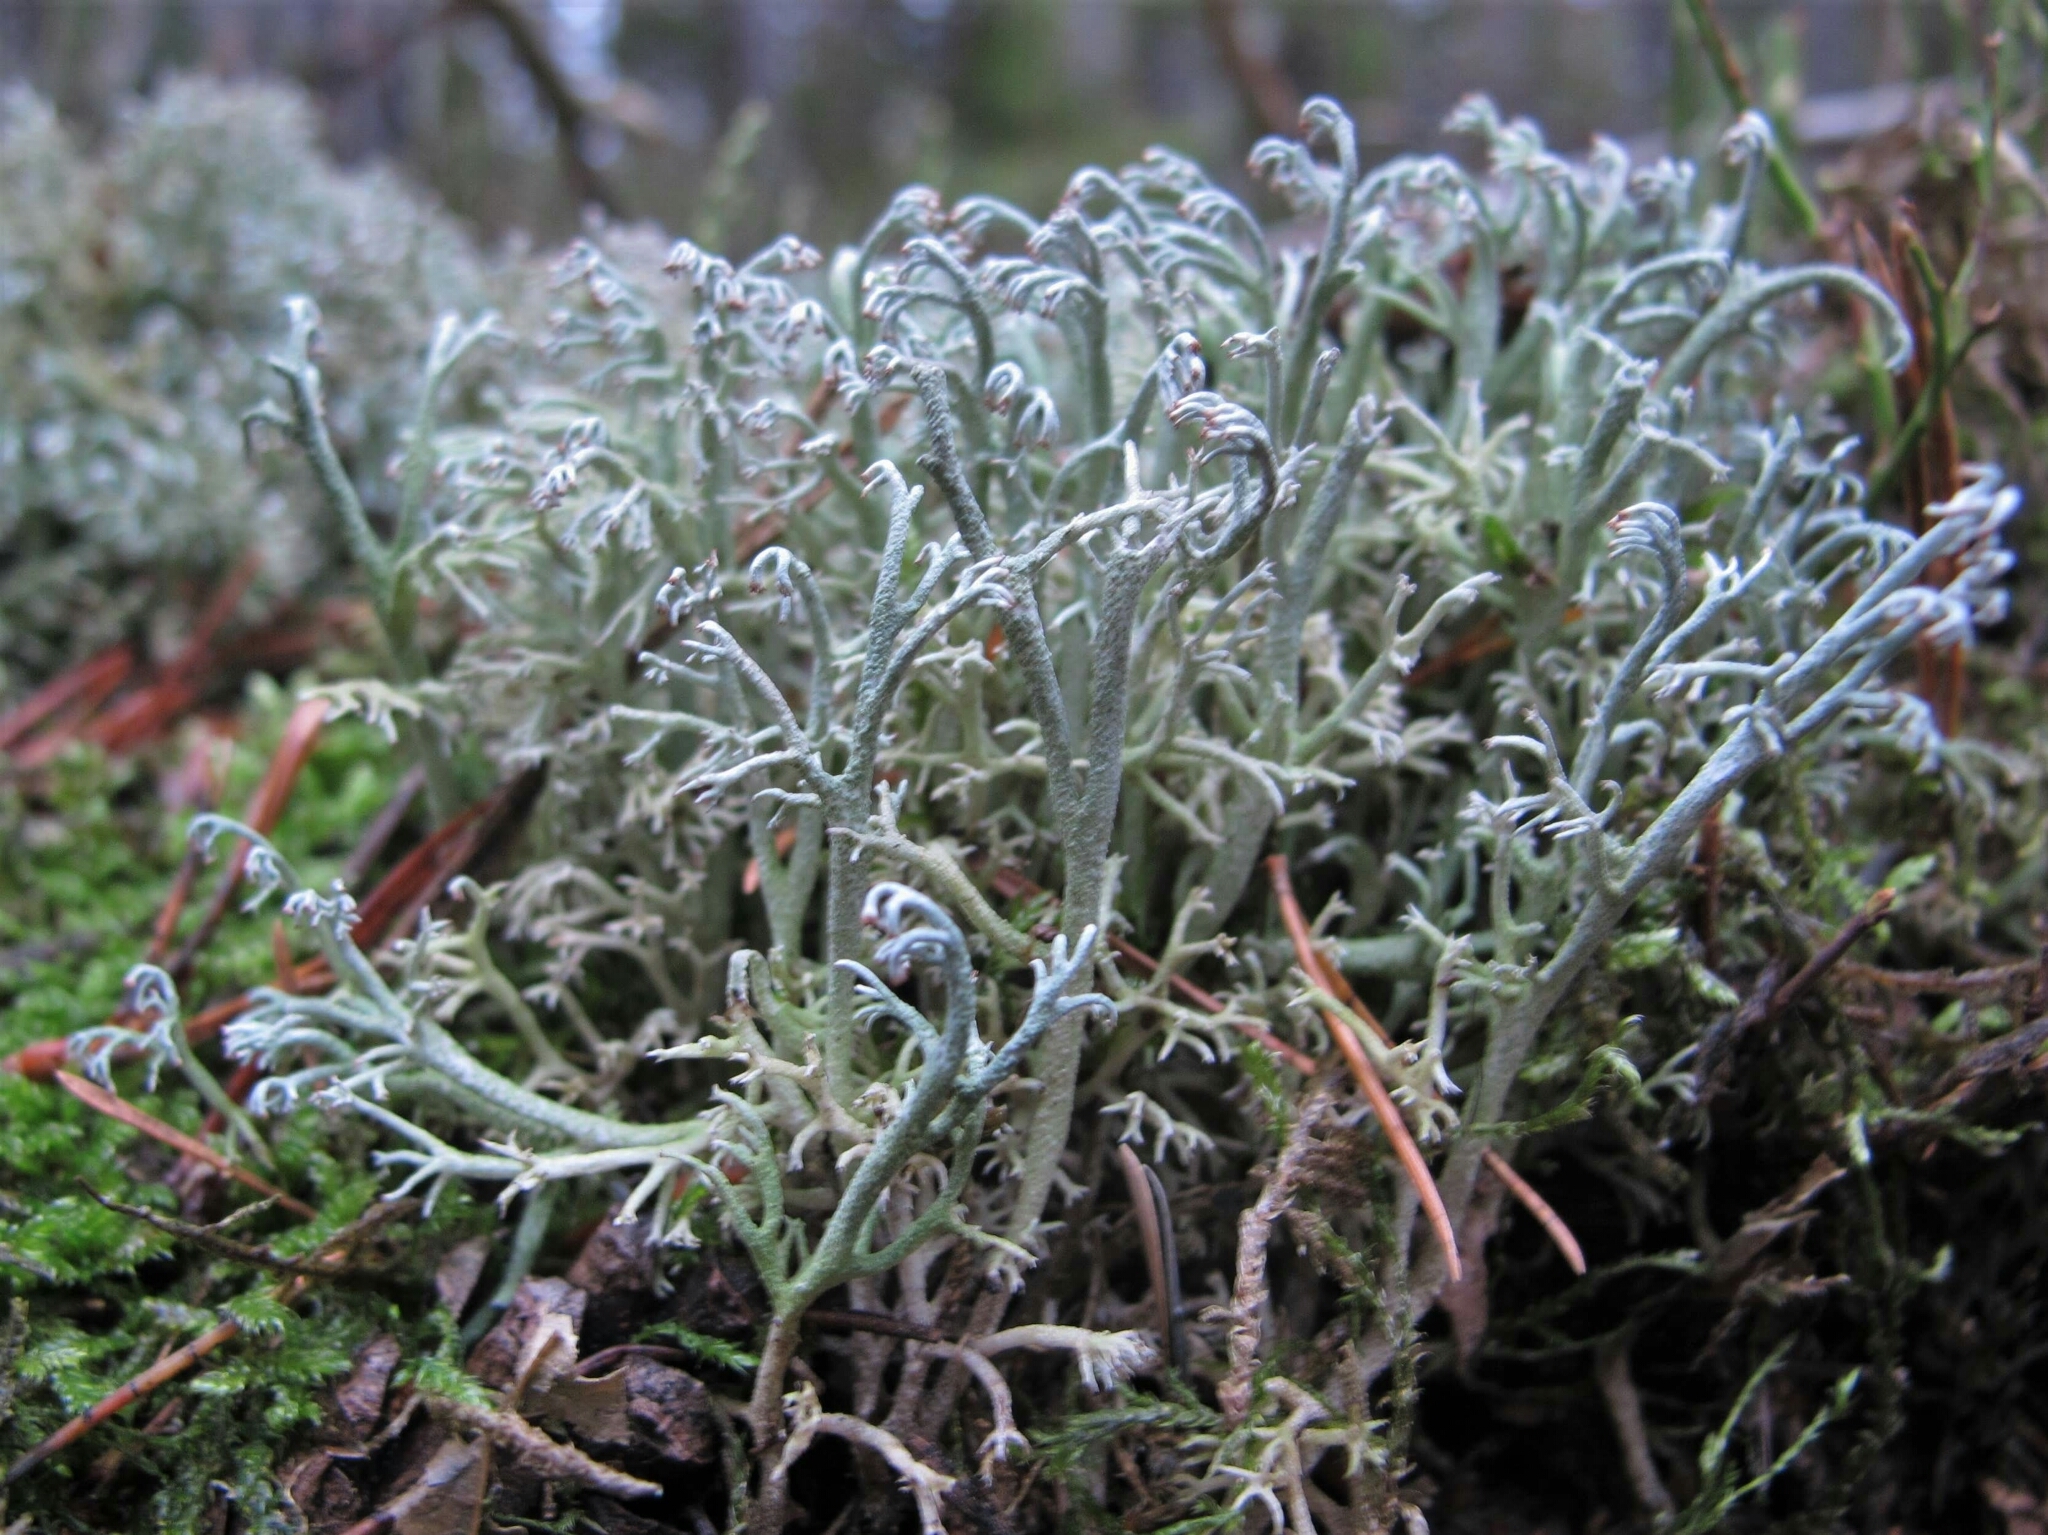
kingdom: Fungi
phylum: Ascomycota
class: Lecanoromycetes
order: Lecanorales
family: Cladoniaceae
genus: Cladonia
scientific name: Cladonia rangiferina
